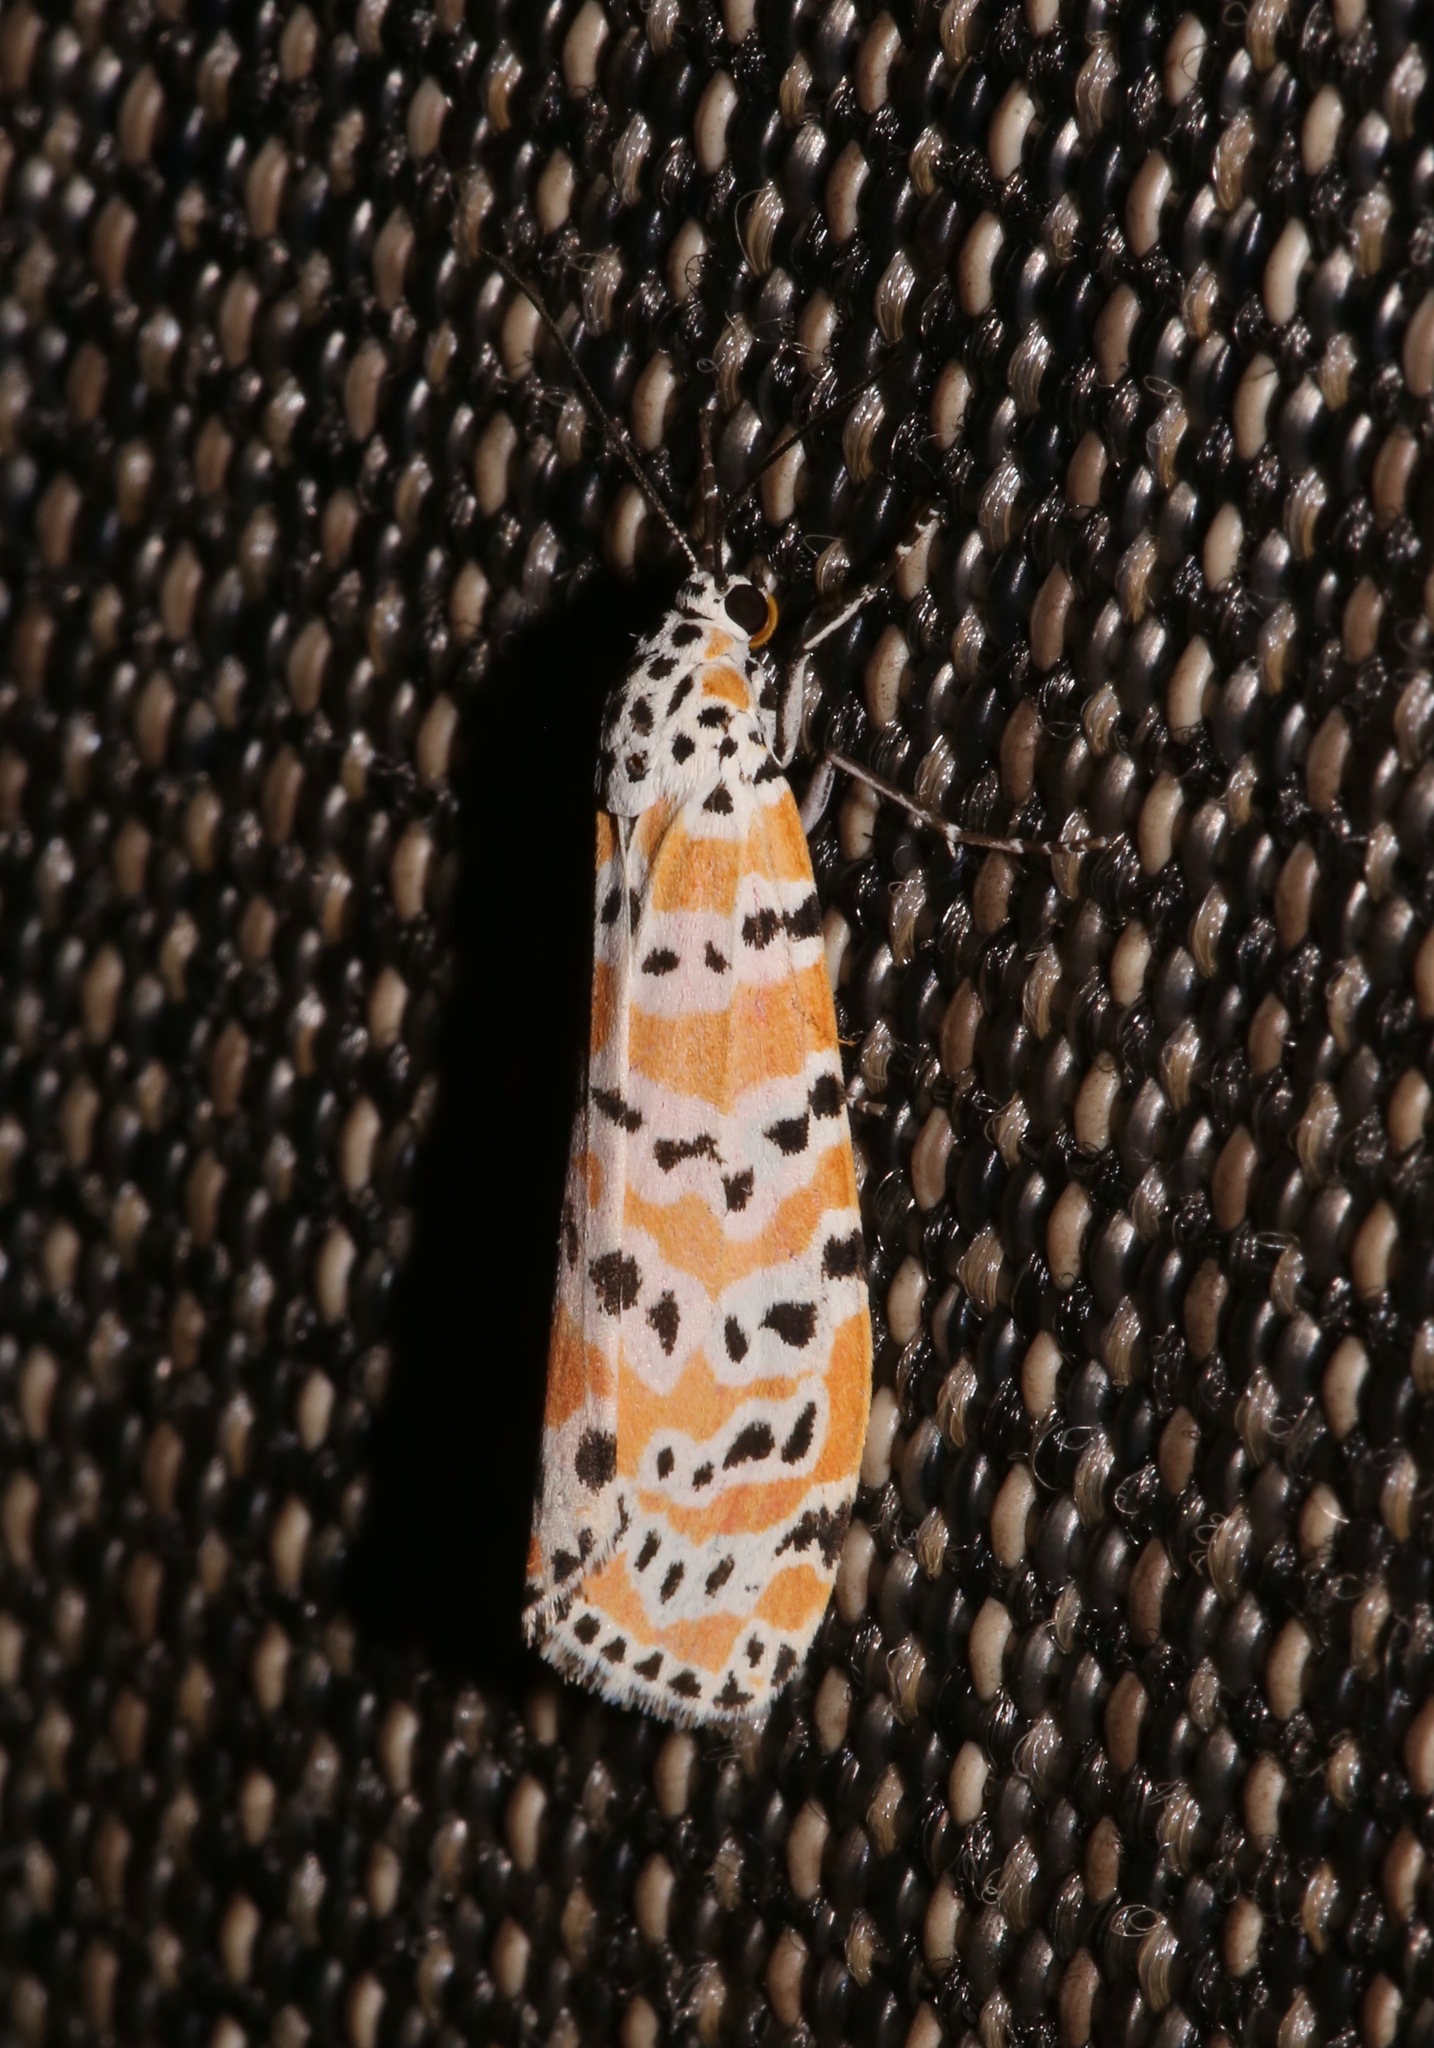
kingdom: Animalia
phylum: Arthropoda
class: Insecta
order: Lepidoptera
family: Erebidae
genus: Utetheisa
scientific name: Utetheisa ornatrix
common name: Beautiful utetheisa
